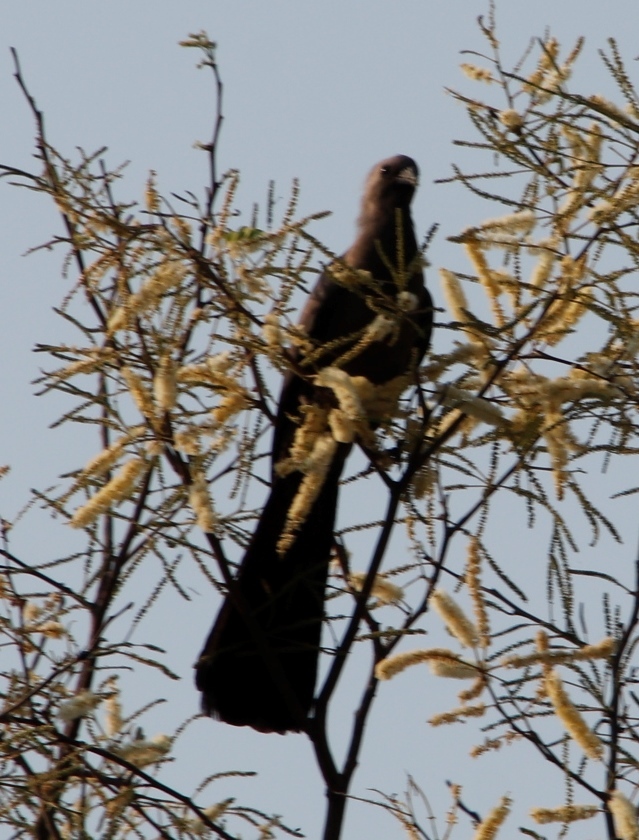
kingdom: Animalia
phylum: Chordata
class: Aves
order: Musophagiformes
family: Musophagidae
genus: Corythaixoides
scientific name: Corythaixoides concolor
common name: Grey go-away-bird
